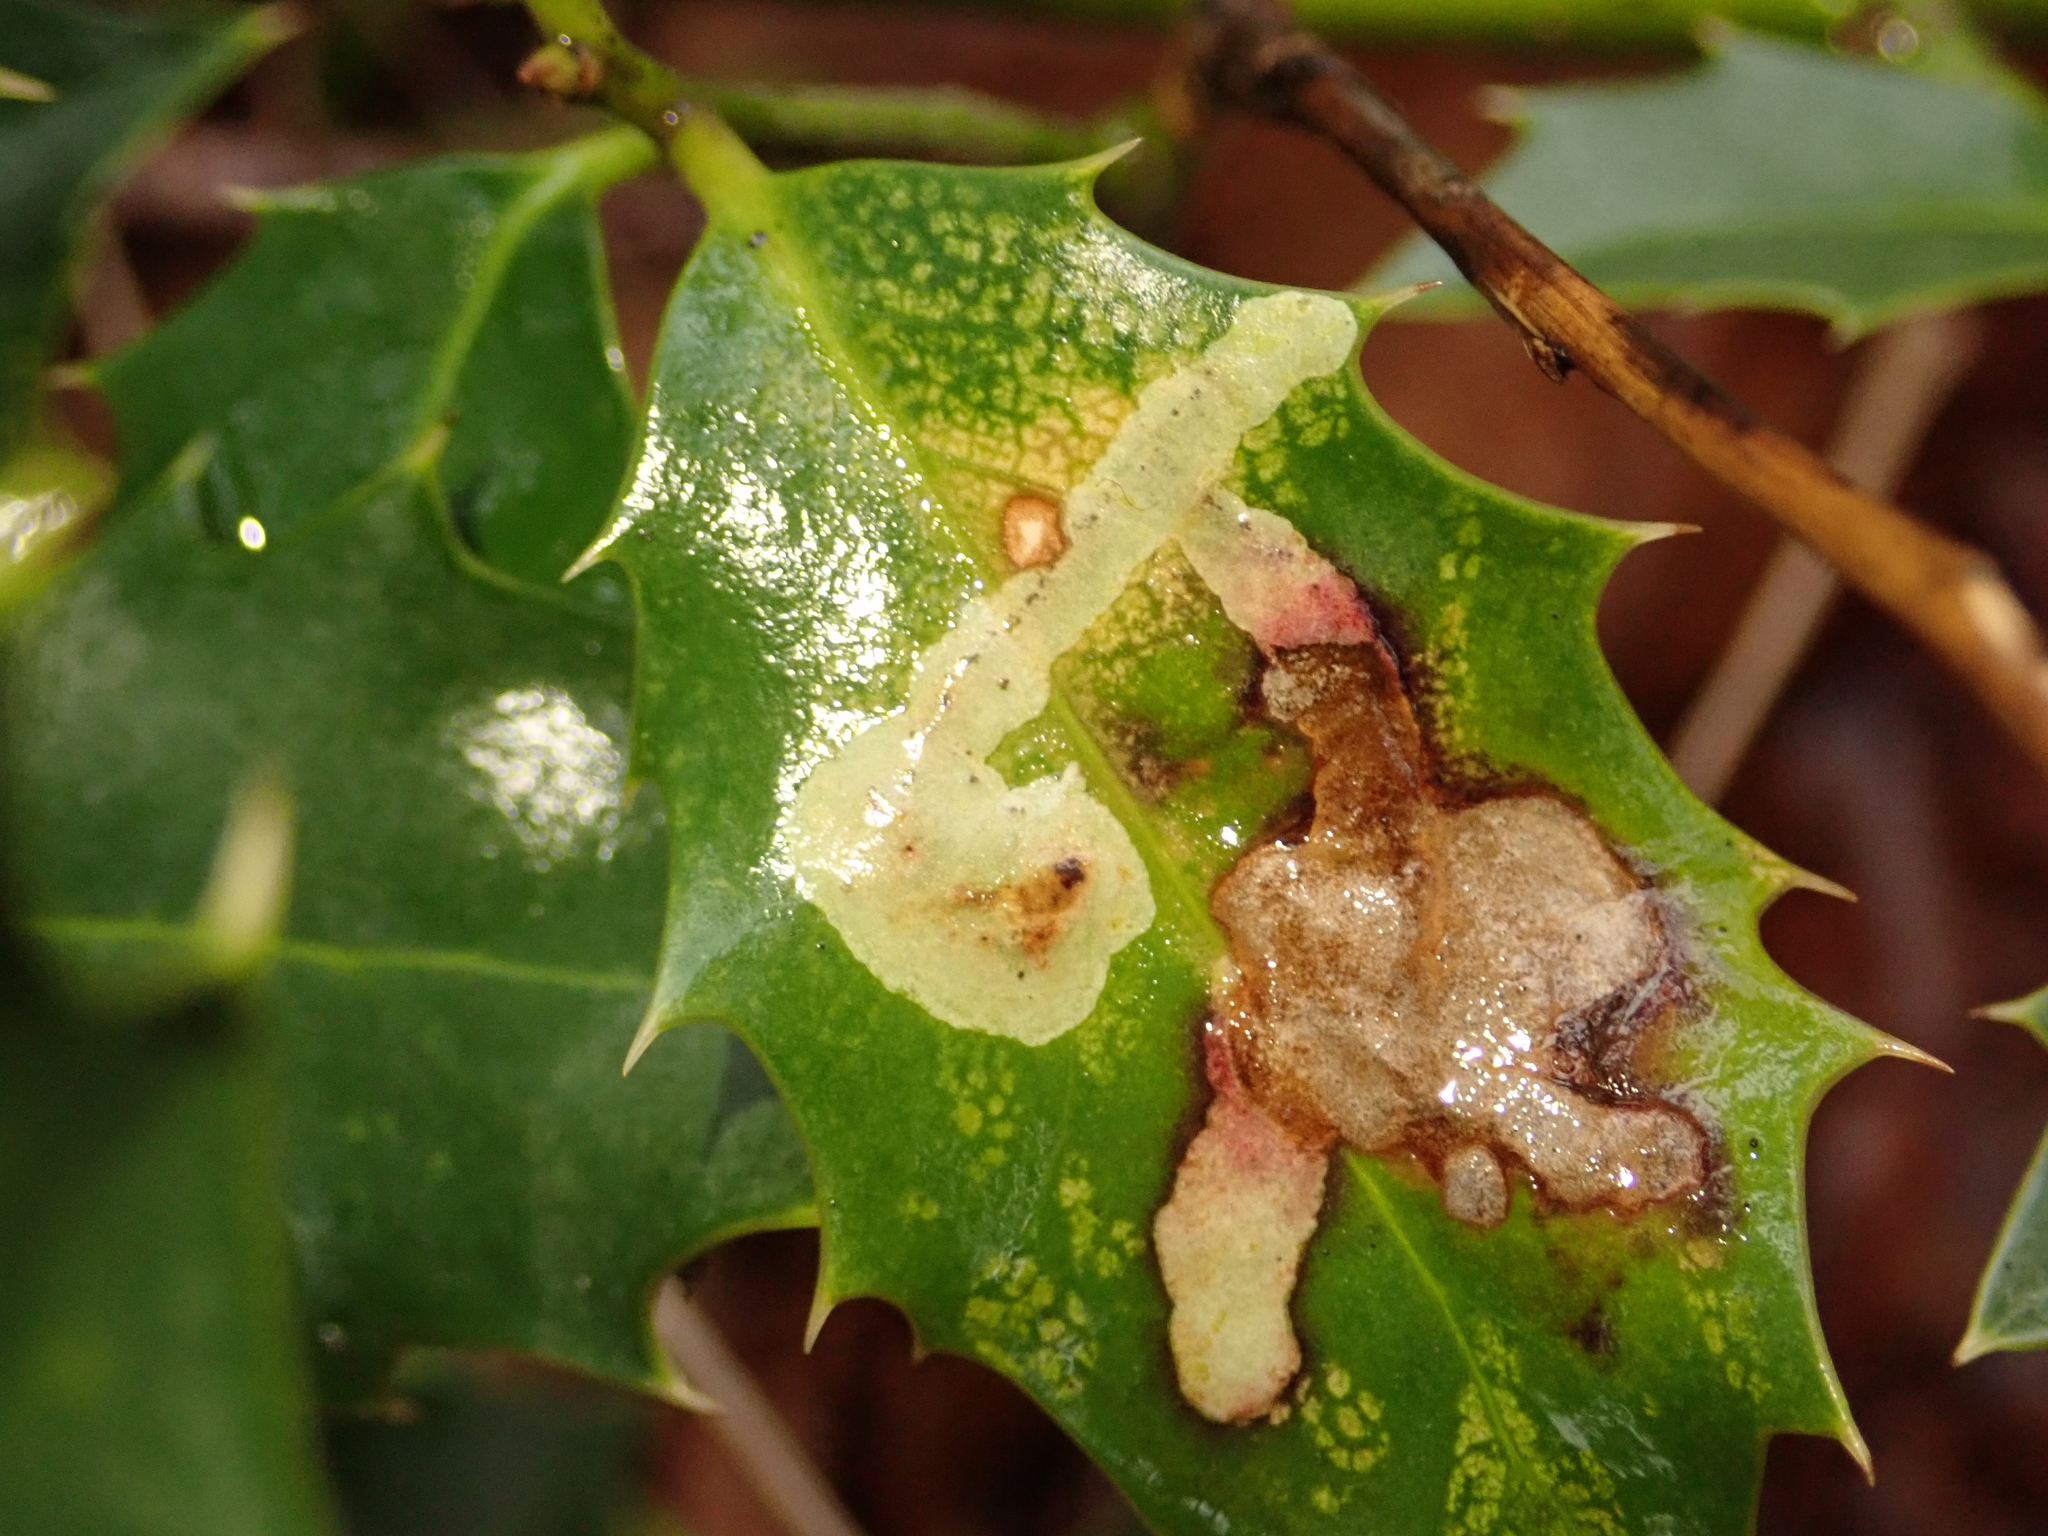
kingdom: Animalia
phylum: Arthropoda
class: Insecta
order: Diptera
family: Agromyzidae
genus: Phytomyza
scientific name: Phytomyza ilicis
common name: Holly leafminer
